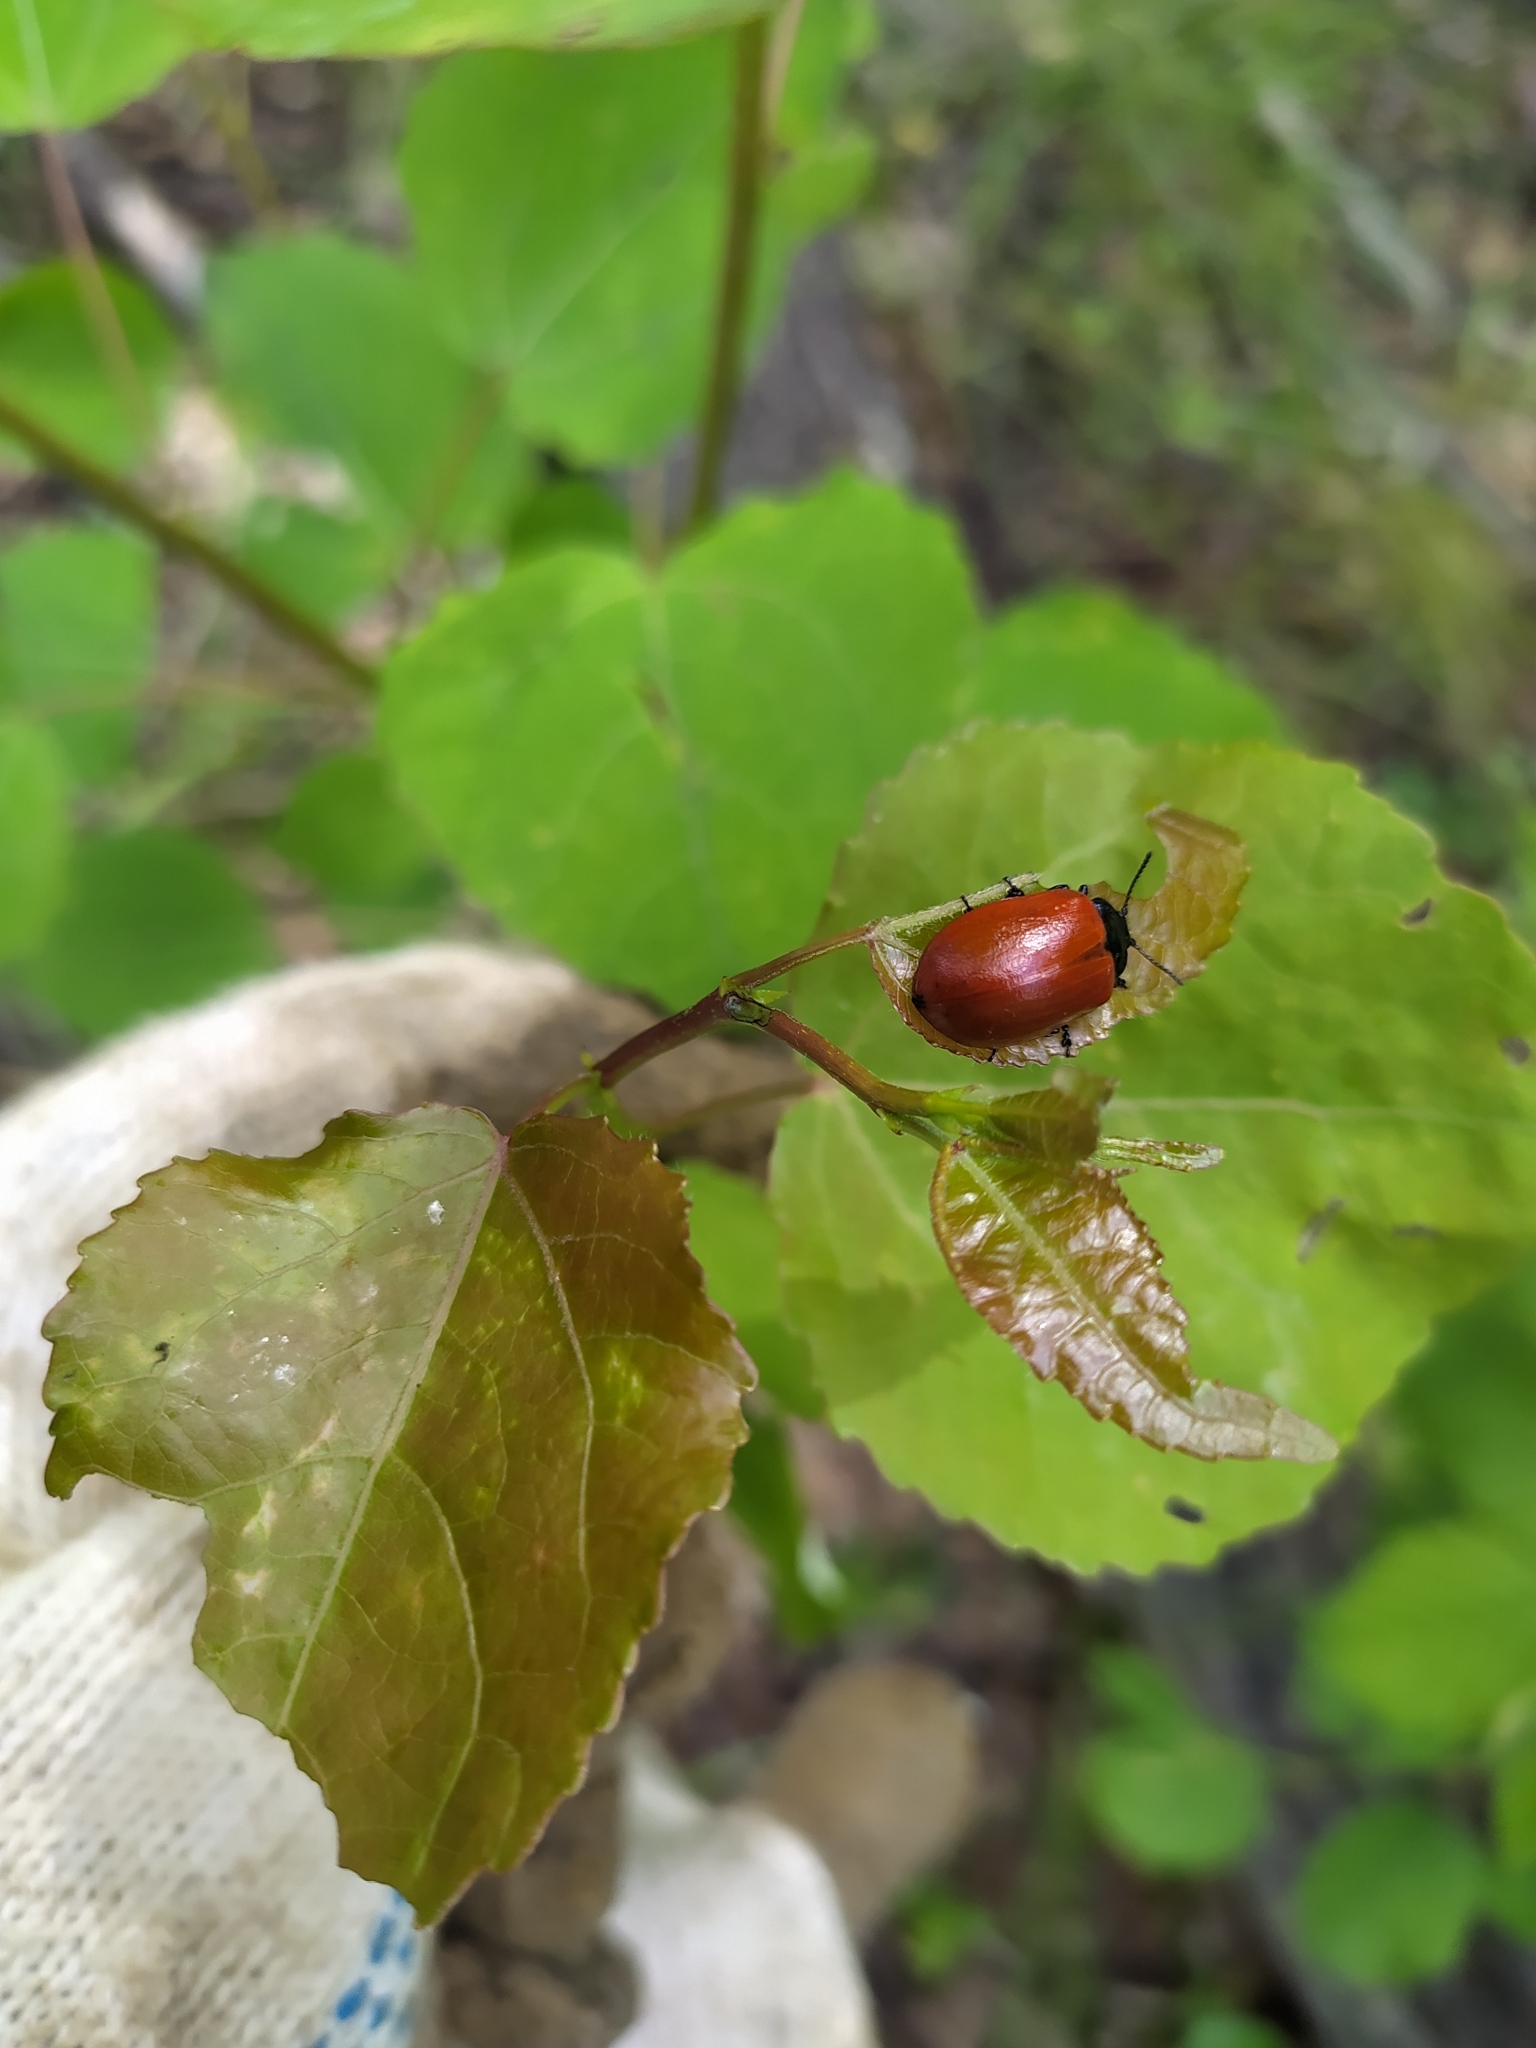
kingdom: Animalia
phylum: Arthropoda
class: Insecta
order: Coleoptera
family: Chrysomelidae
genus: Chrysomela
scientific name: Chrysomela populi
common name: Red poplar leaf beetle
